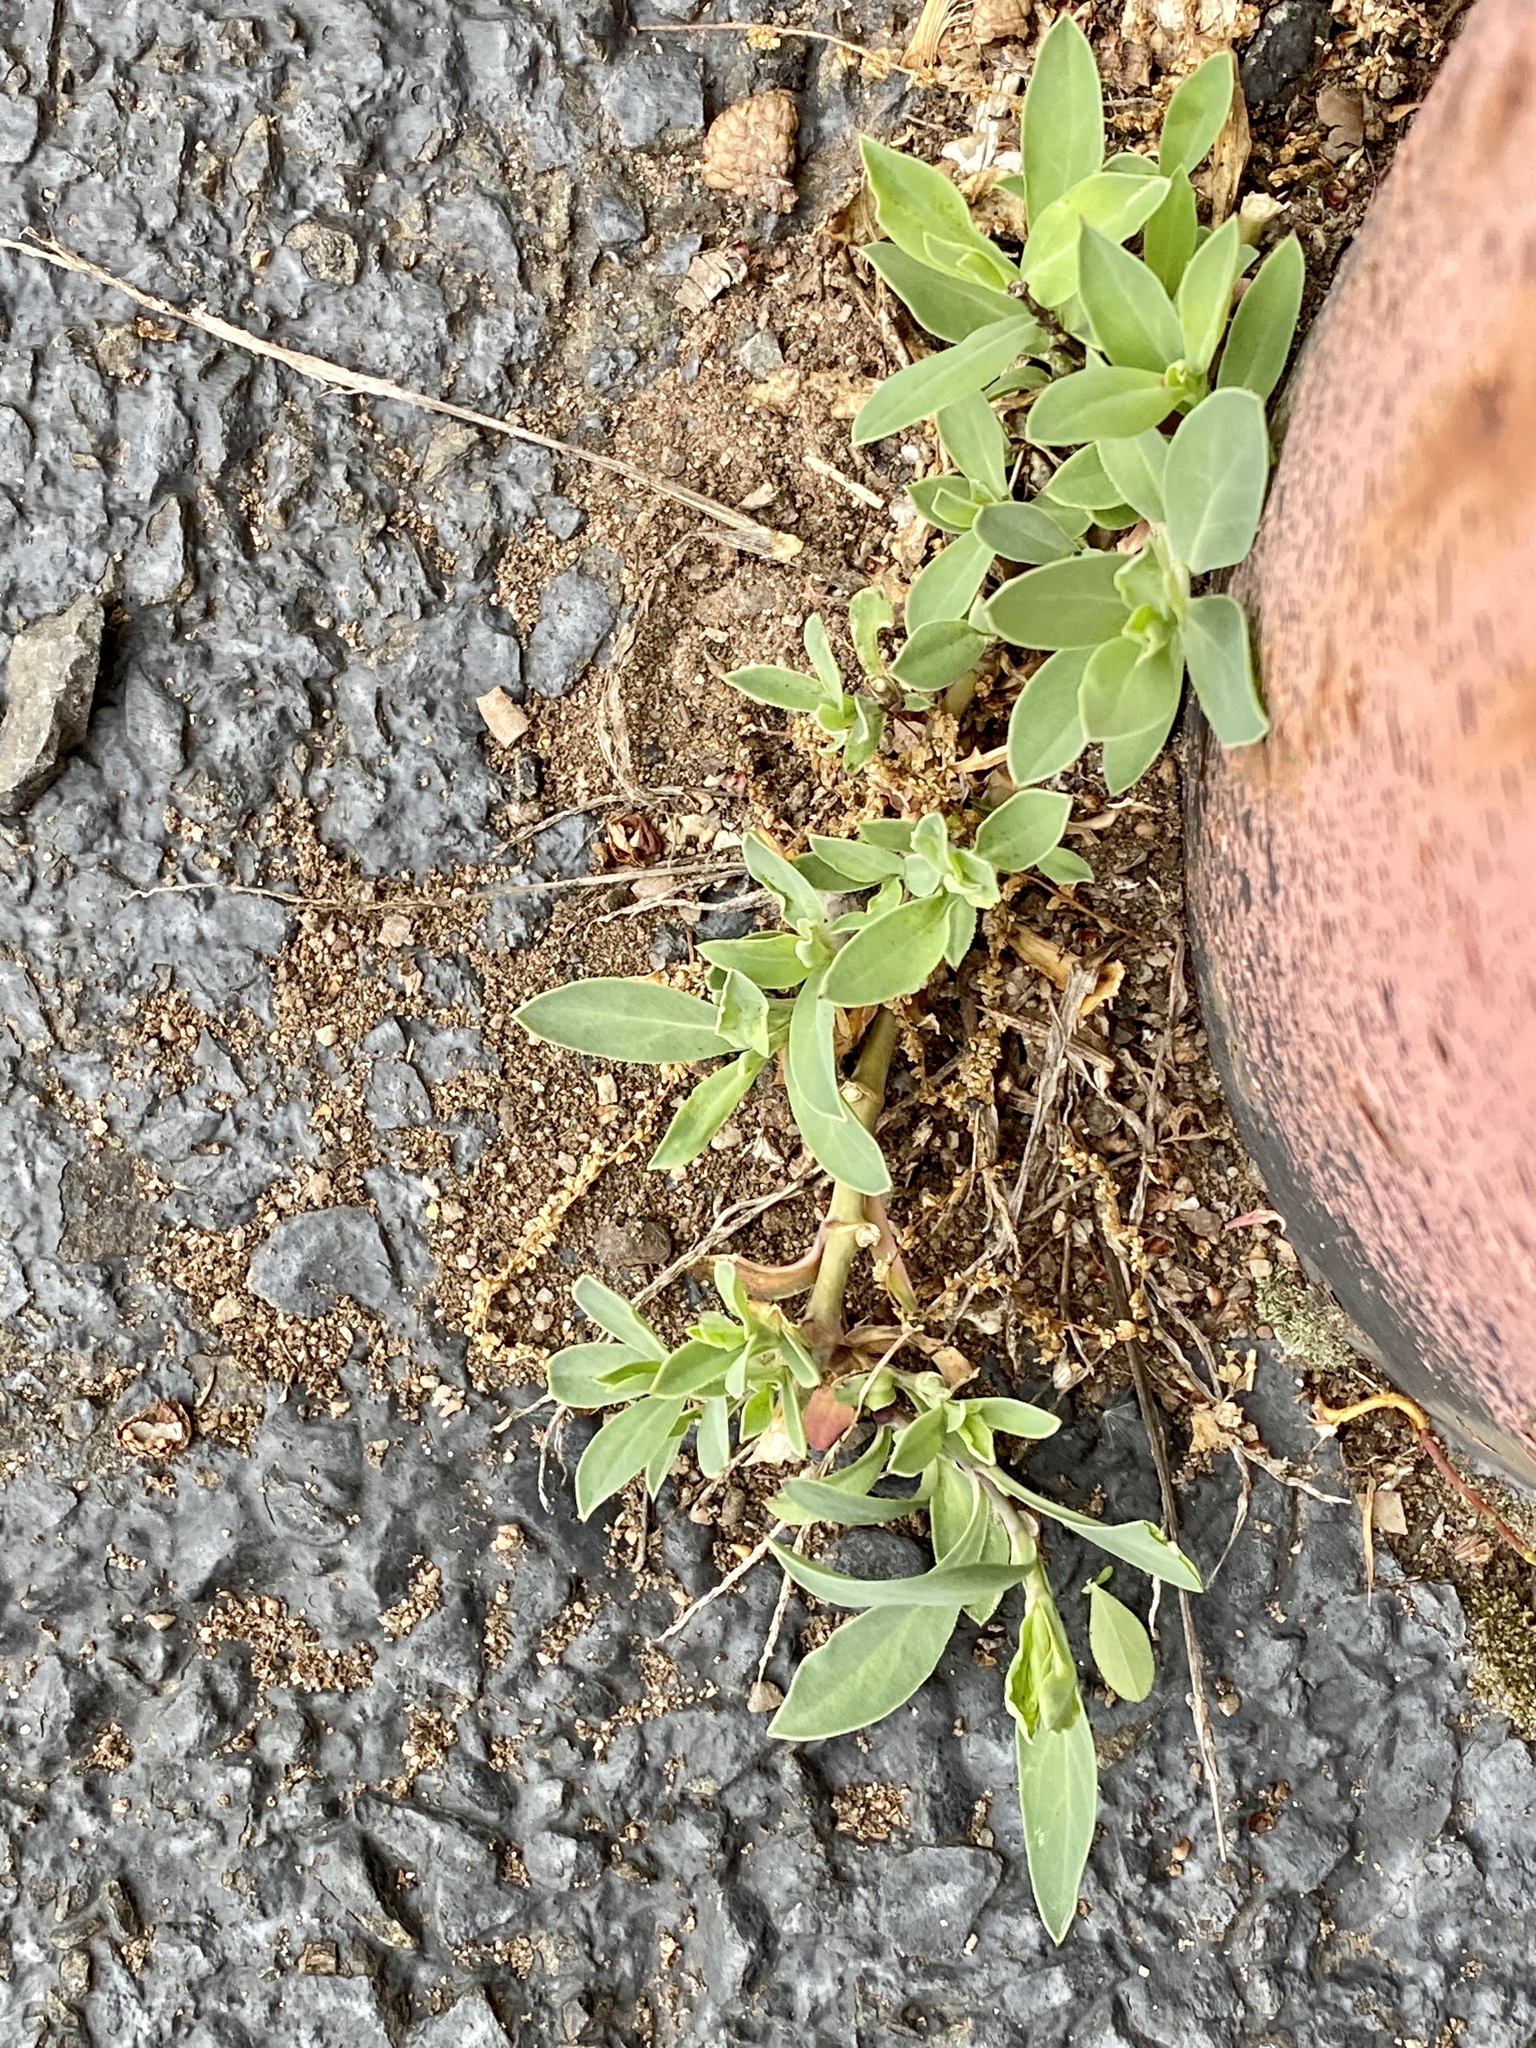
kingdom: Plantae
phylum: Tracheophyta
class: Magnoliopsida
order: Caryophyllales
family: Caryophyllaceae
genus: Silene
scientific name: Silene vulgaris
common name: Bladder campion
